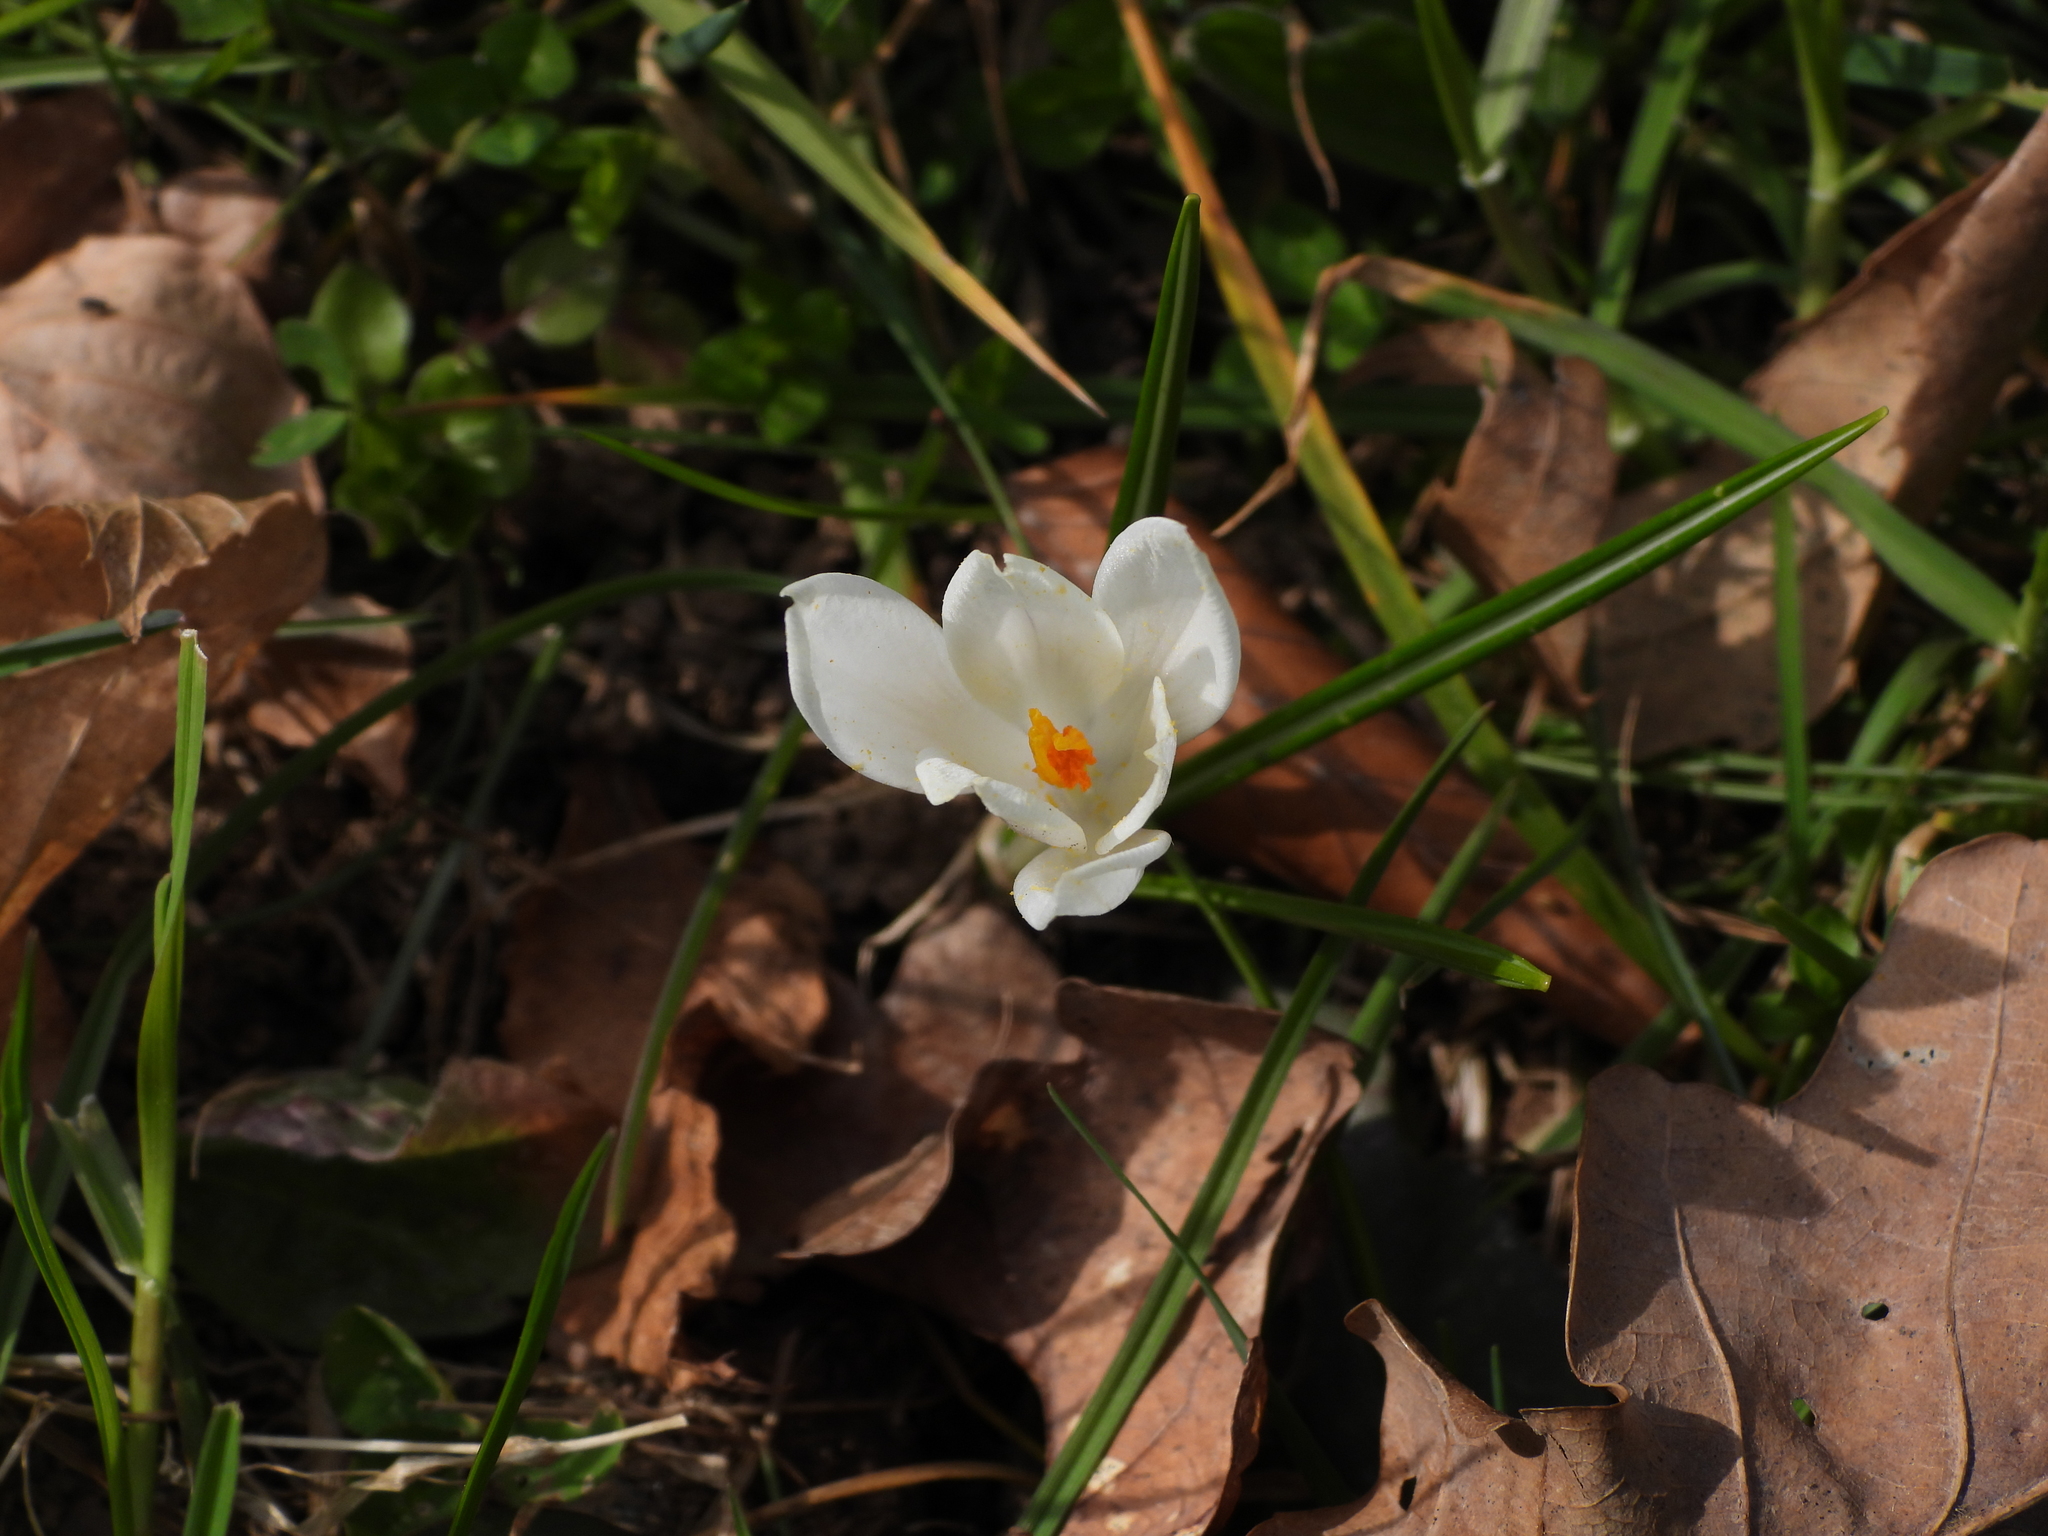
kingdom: Plantae
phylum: Tracheophyta
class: Liliopsida
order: Asparagales
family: Iridaceae
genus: Crocus
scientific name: Crocus vernus
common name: Spring crocus
